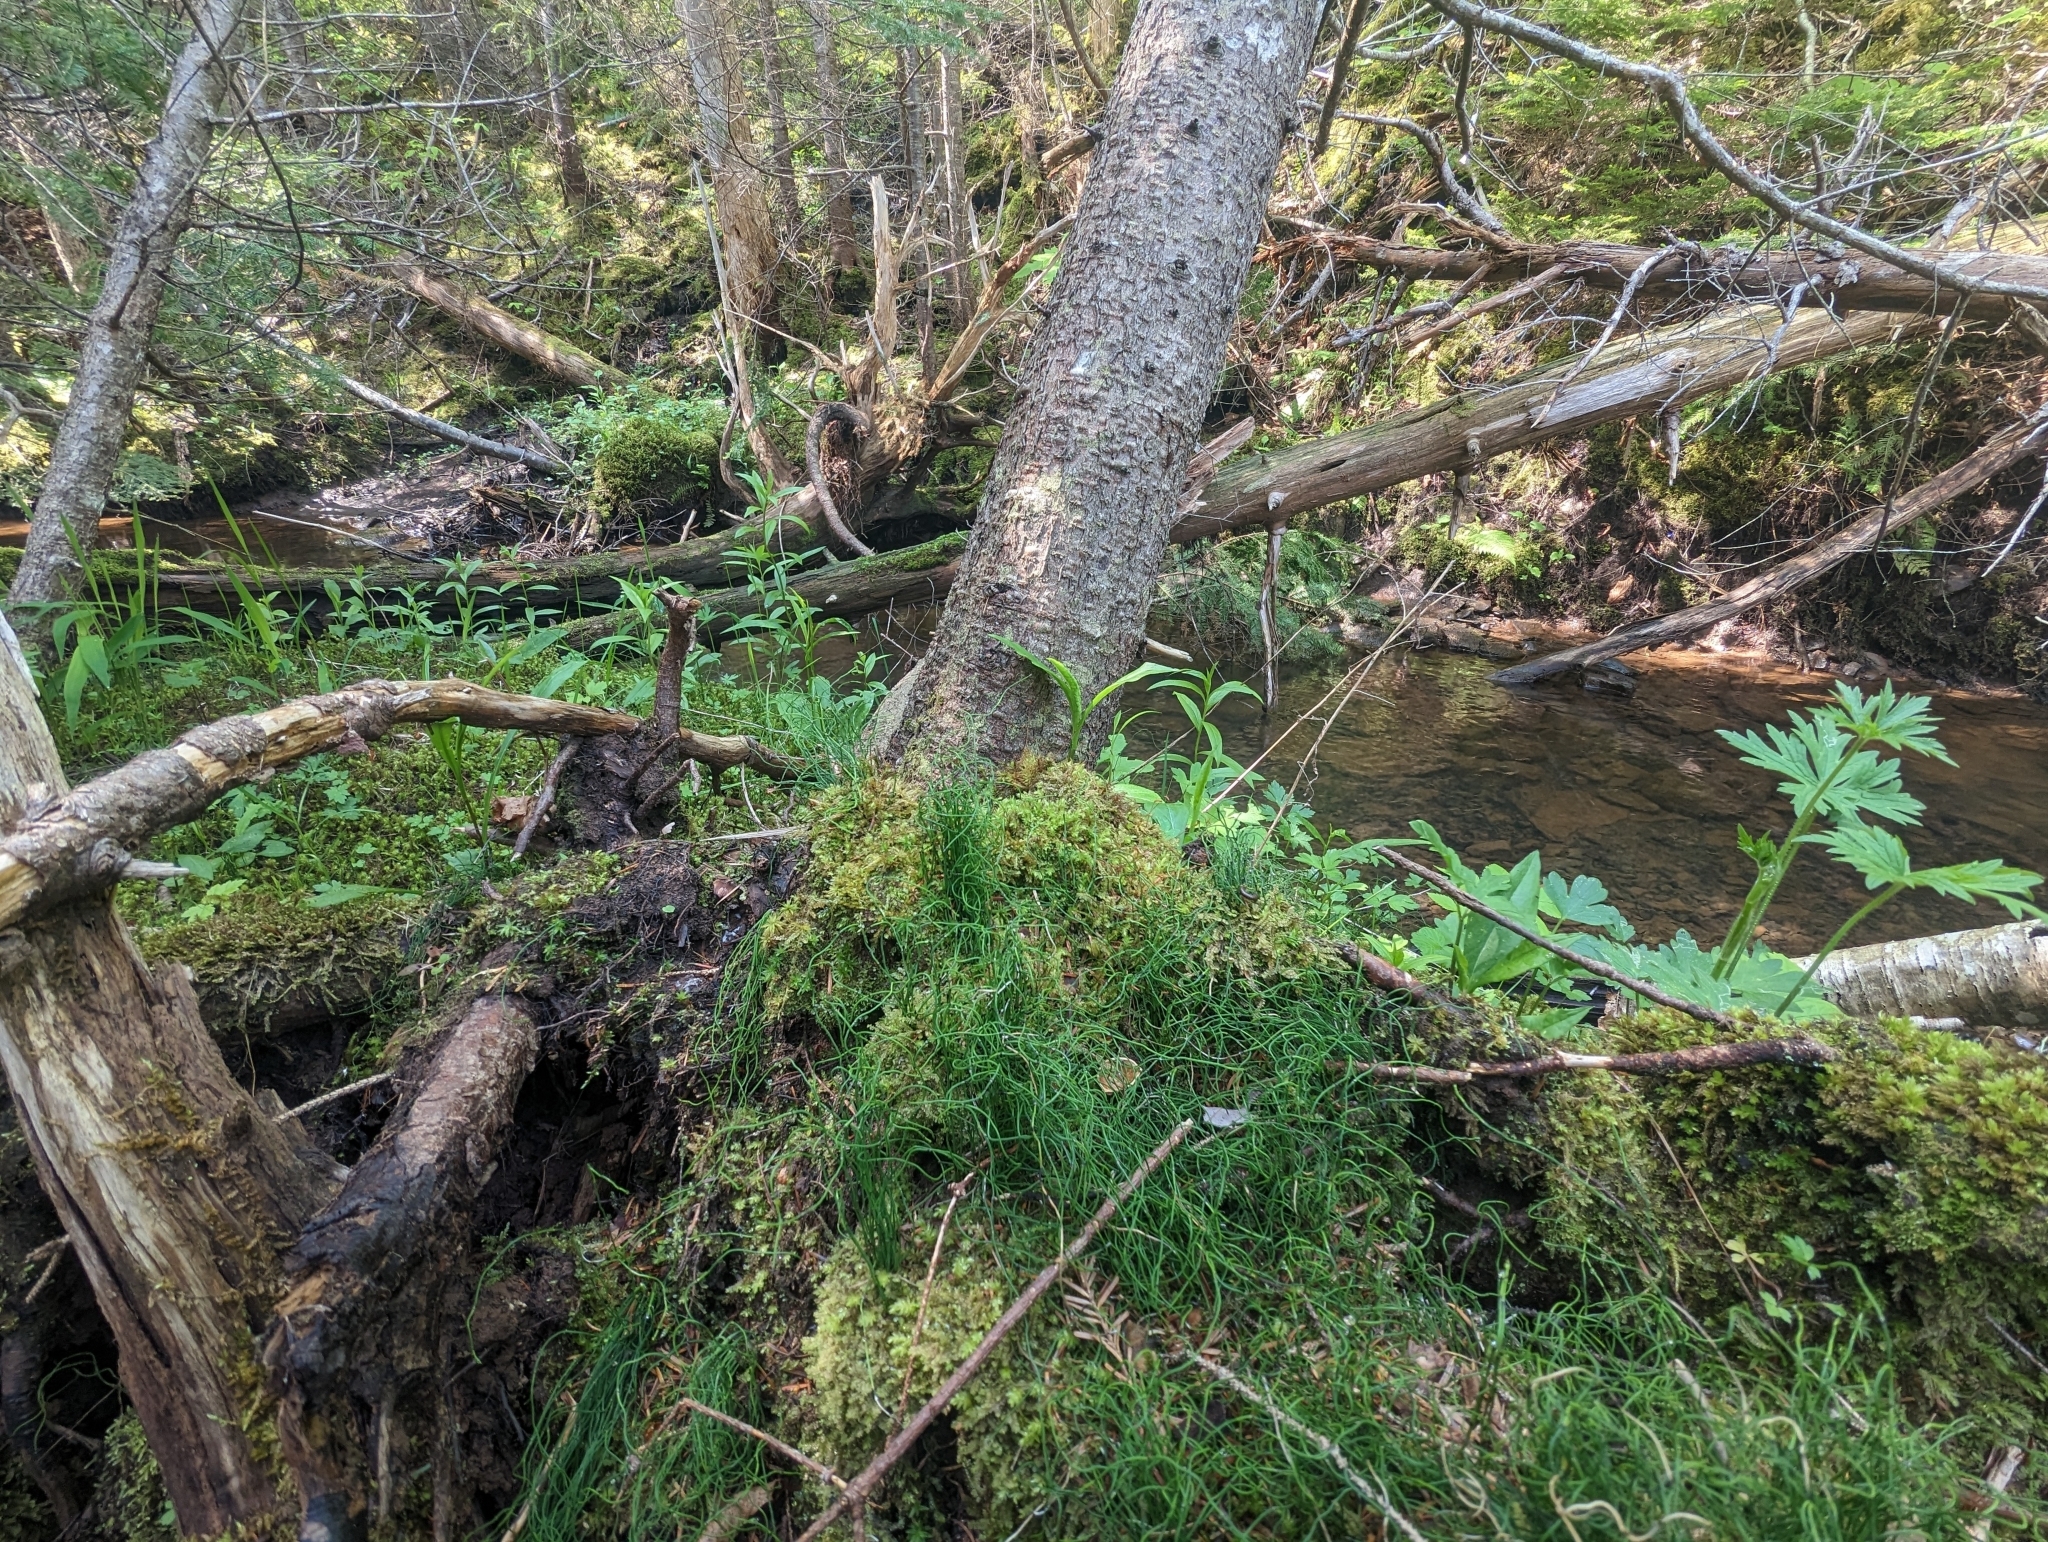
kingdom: Plantae
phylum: Tracheophyta
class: Polypodiopsida
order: Equisetales
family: Equisetaceae
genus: Equisetum
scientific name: Equisetum scirpoides
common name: Delicate horsetail
